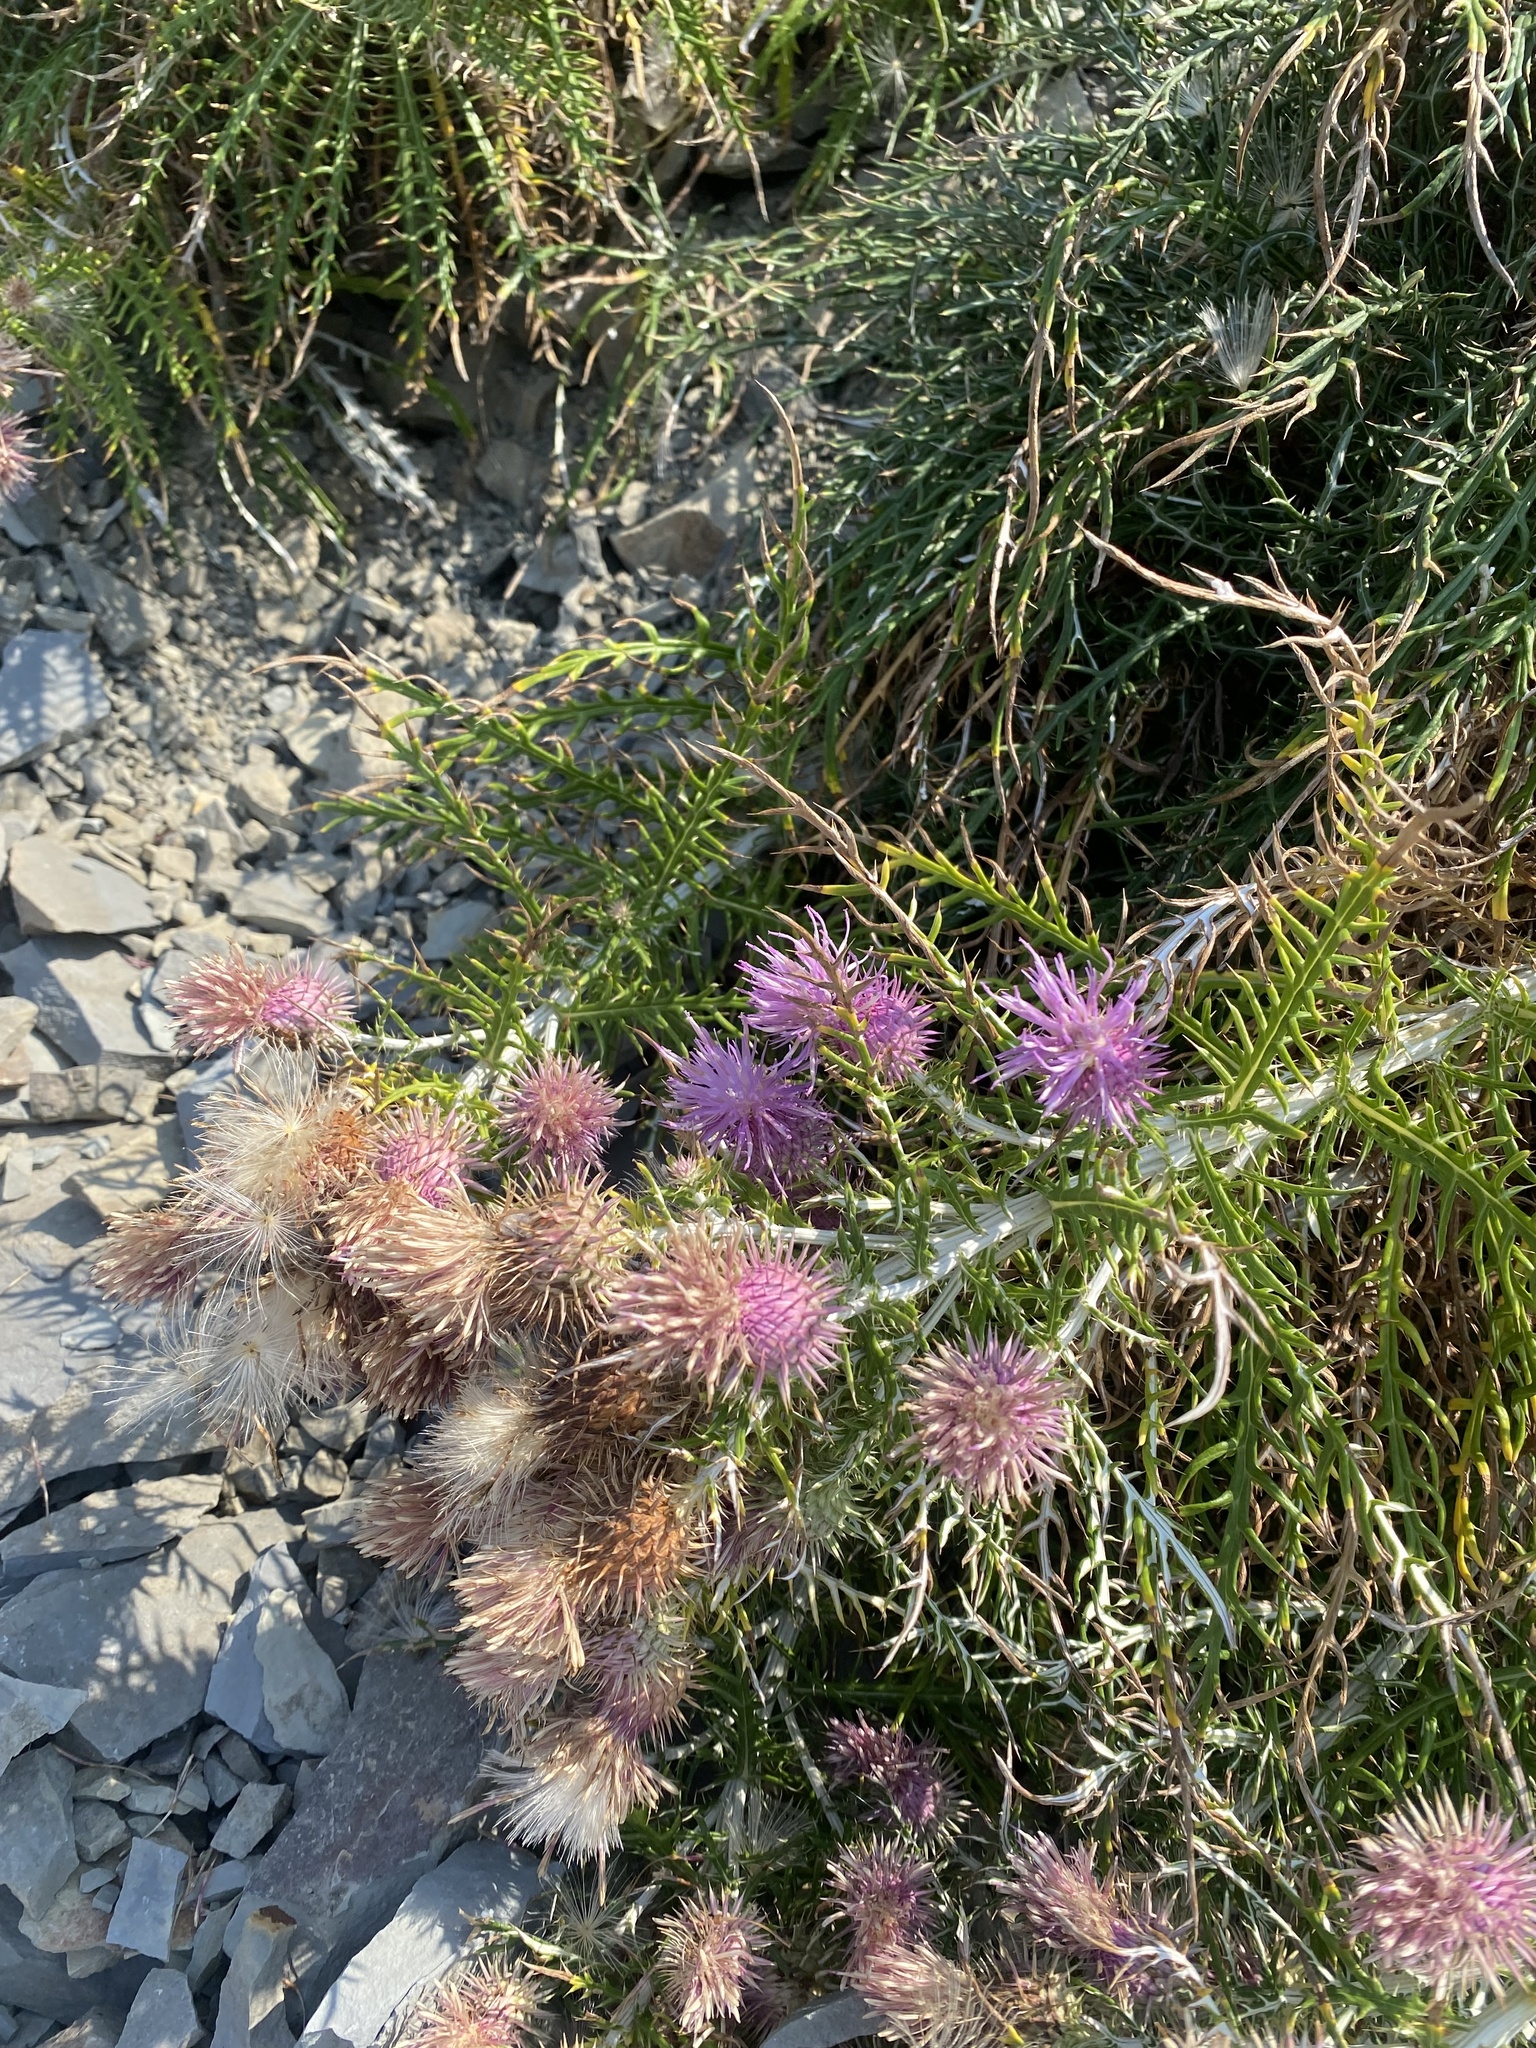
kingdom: Plantae
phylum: Tracheophyta
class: Magnoliopsida
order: Asterales
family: Asteraceae
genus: Ptilostemon
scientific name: Ptilostemon echinocephalus
